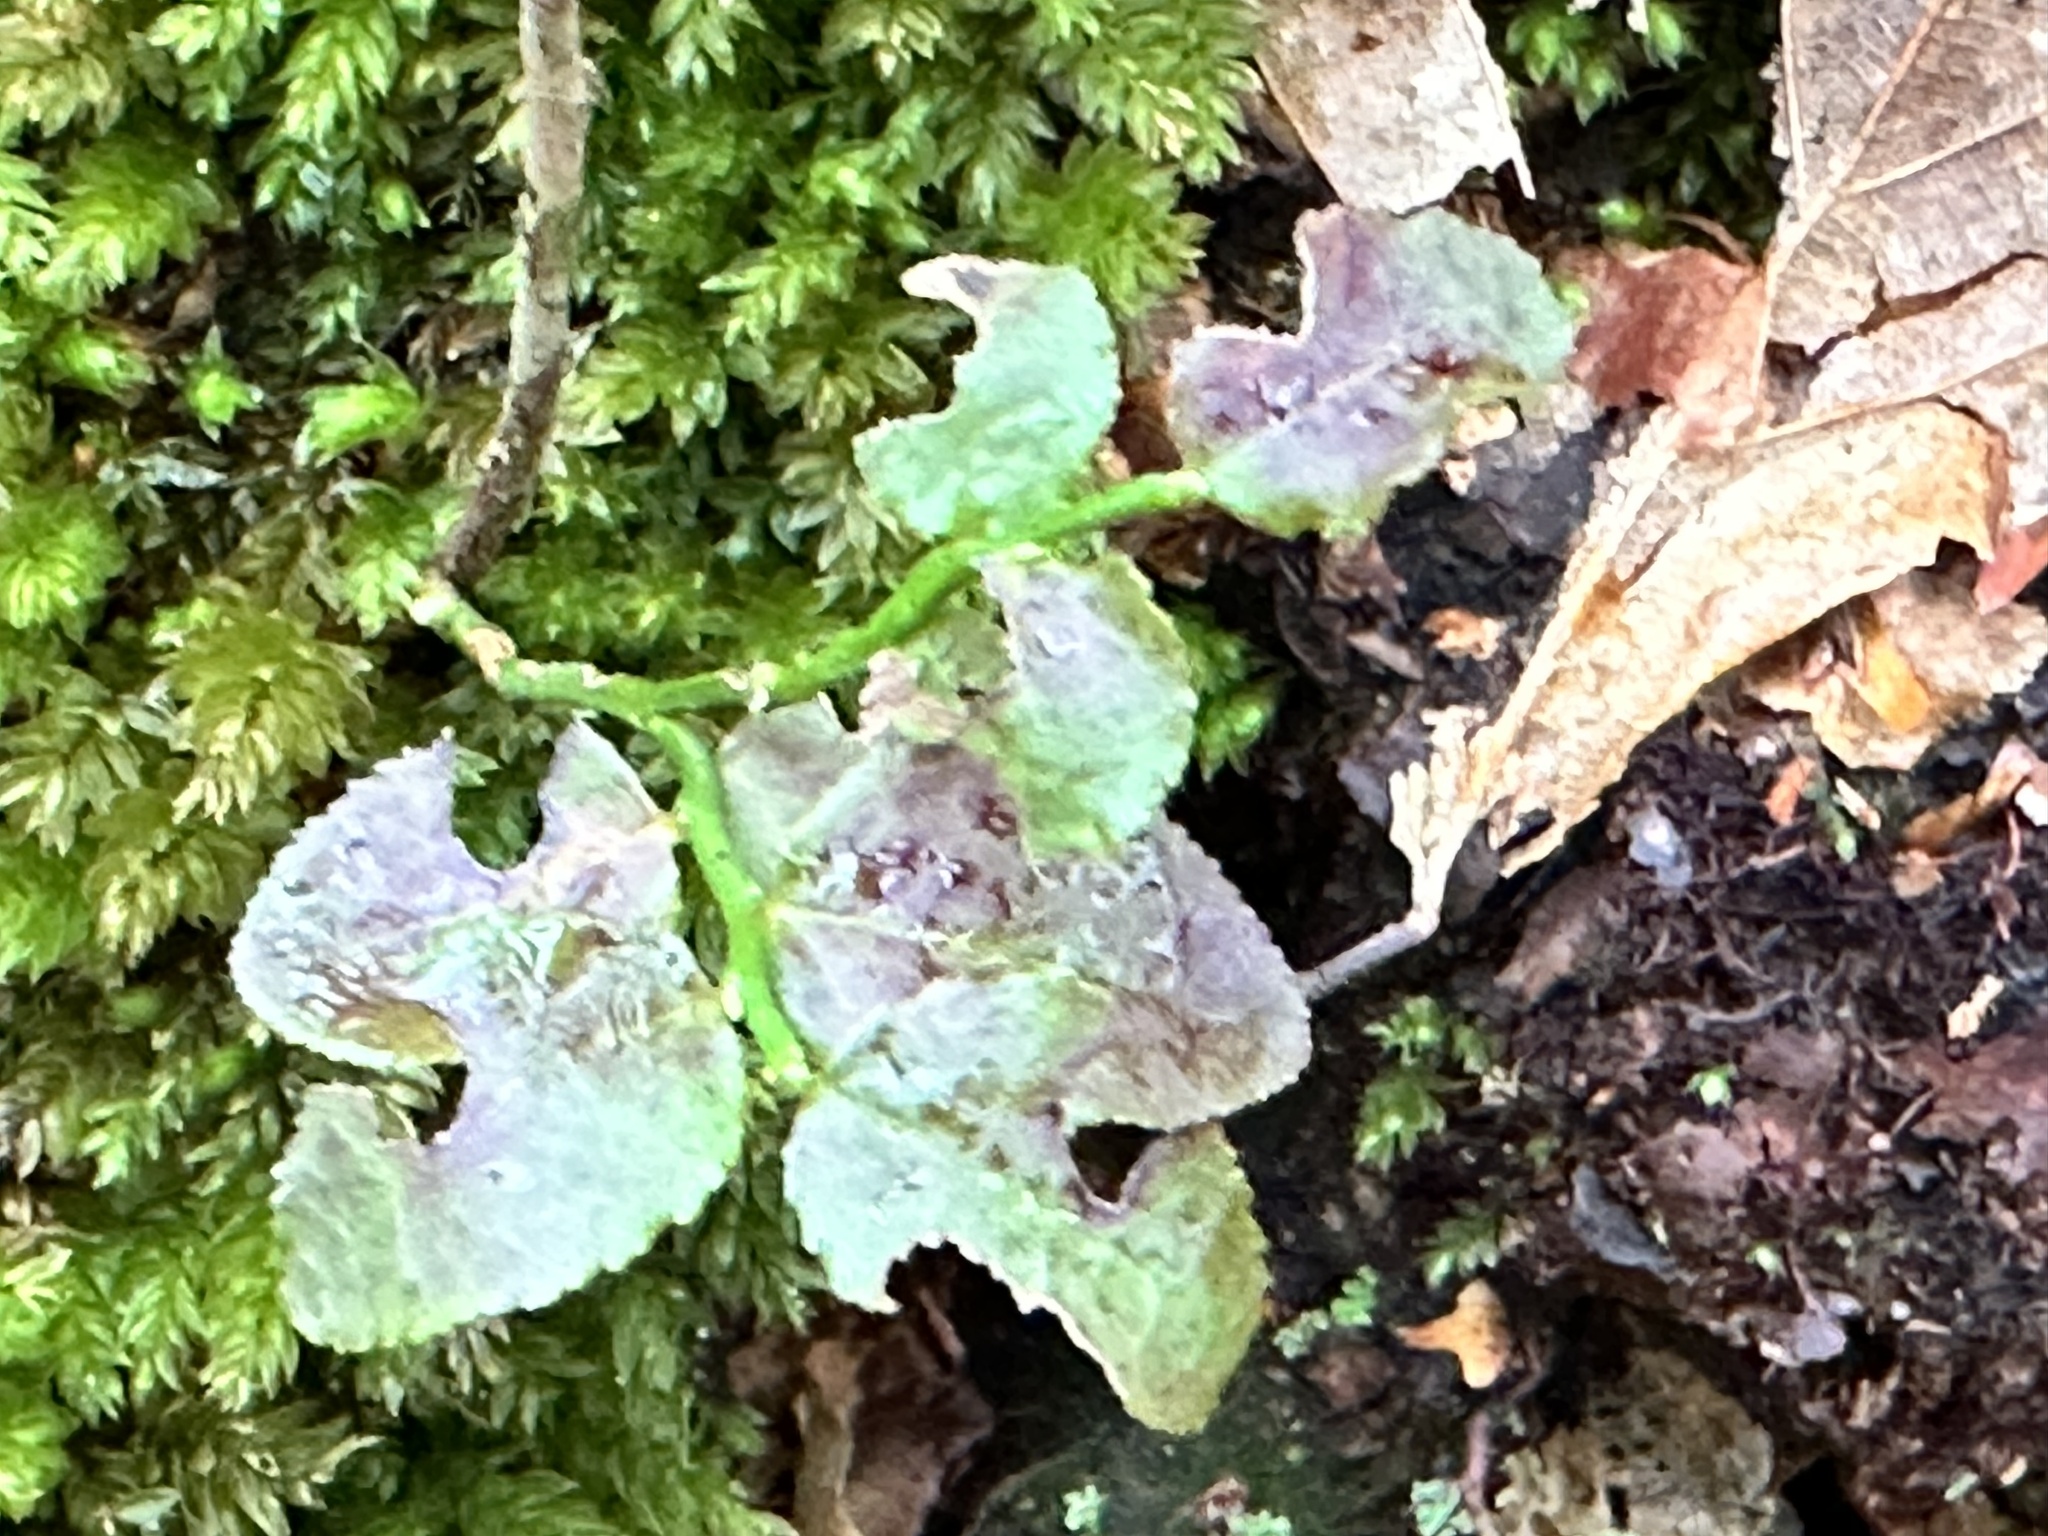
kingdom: Plantae
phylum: Tracheophyta
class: Magnoliopsida
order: Ericales
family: Ericaceae
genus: Vaccinium
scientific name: Vaccinium myrtillus
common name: Bilberry
